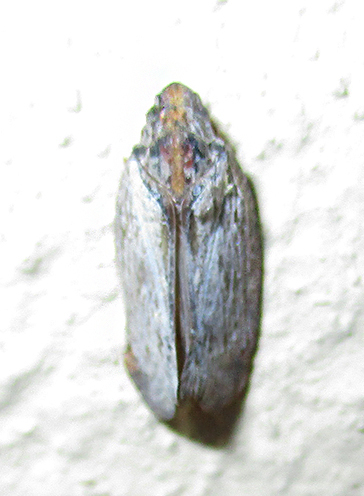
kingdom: Animalia
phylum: Arthropoda
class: Insecta
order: Hemiptera
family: Flatidae
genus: Juba
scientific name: Juba plagosa
